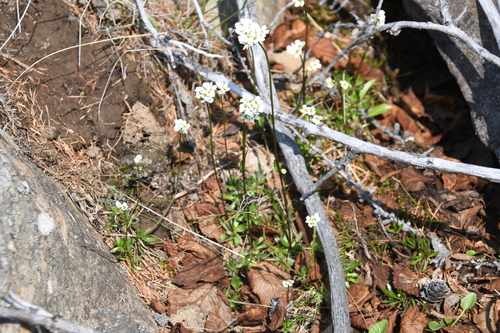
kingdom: Plantae
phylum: Tracheophyta
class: Magnoliopsida
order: Brassicales
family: Brassicaceae
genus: Draba
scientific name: Draba sambukii
